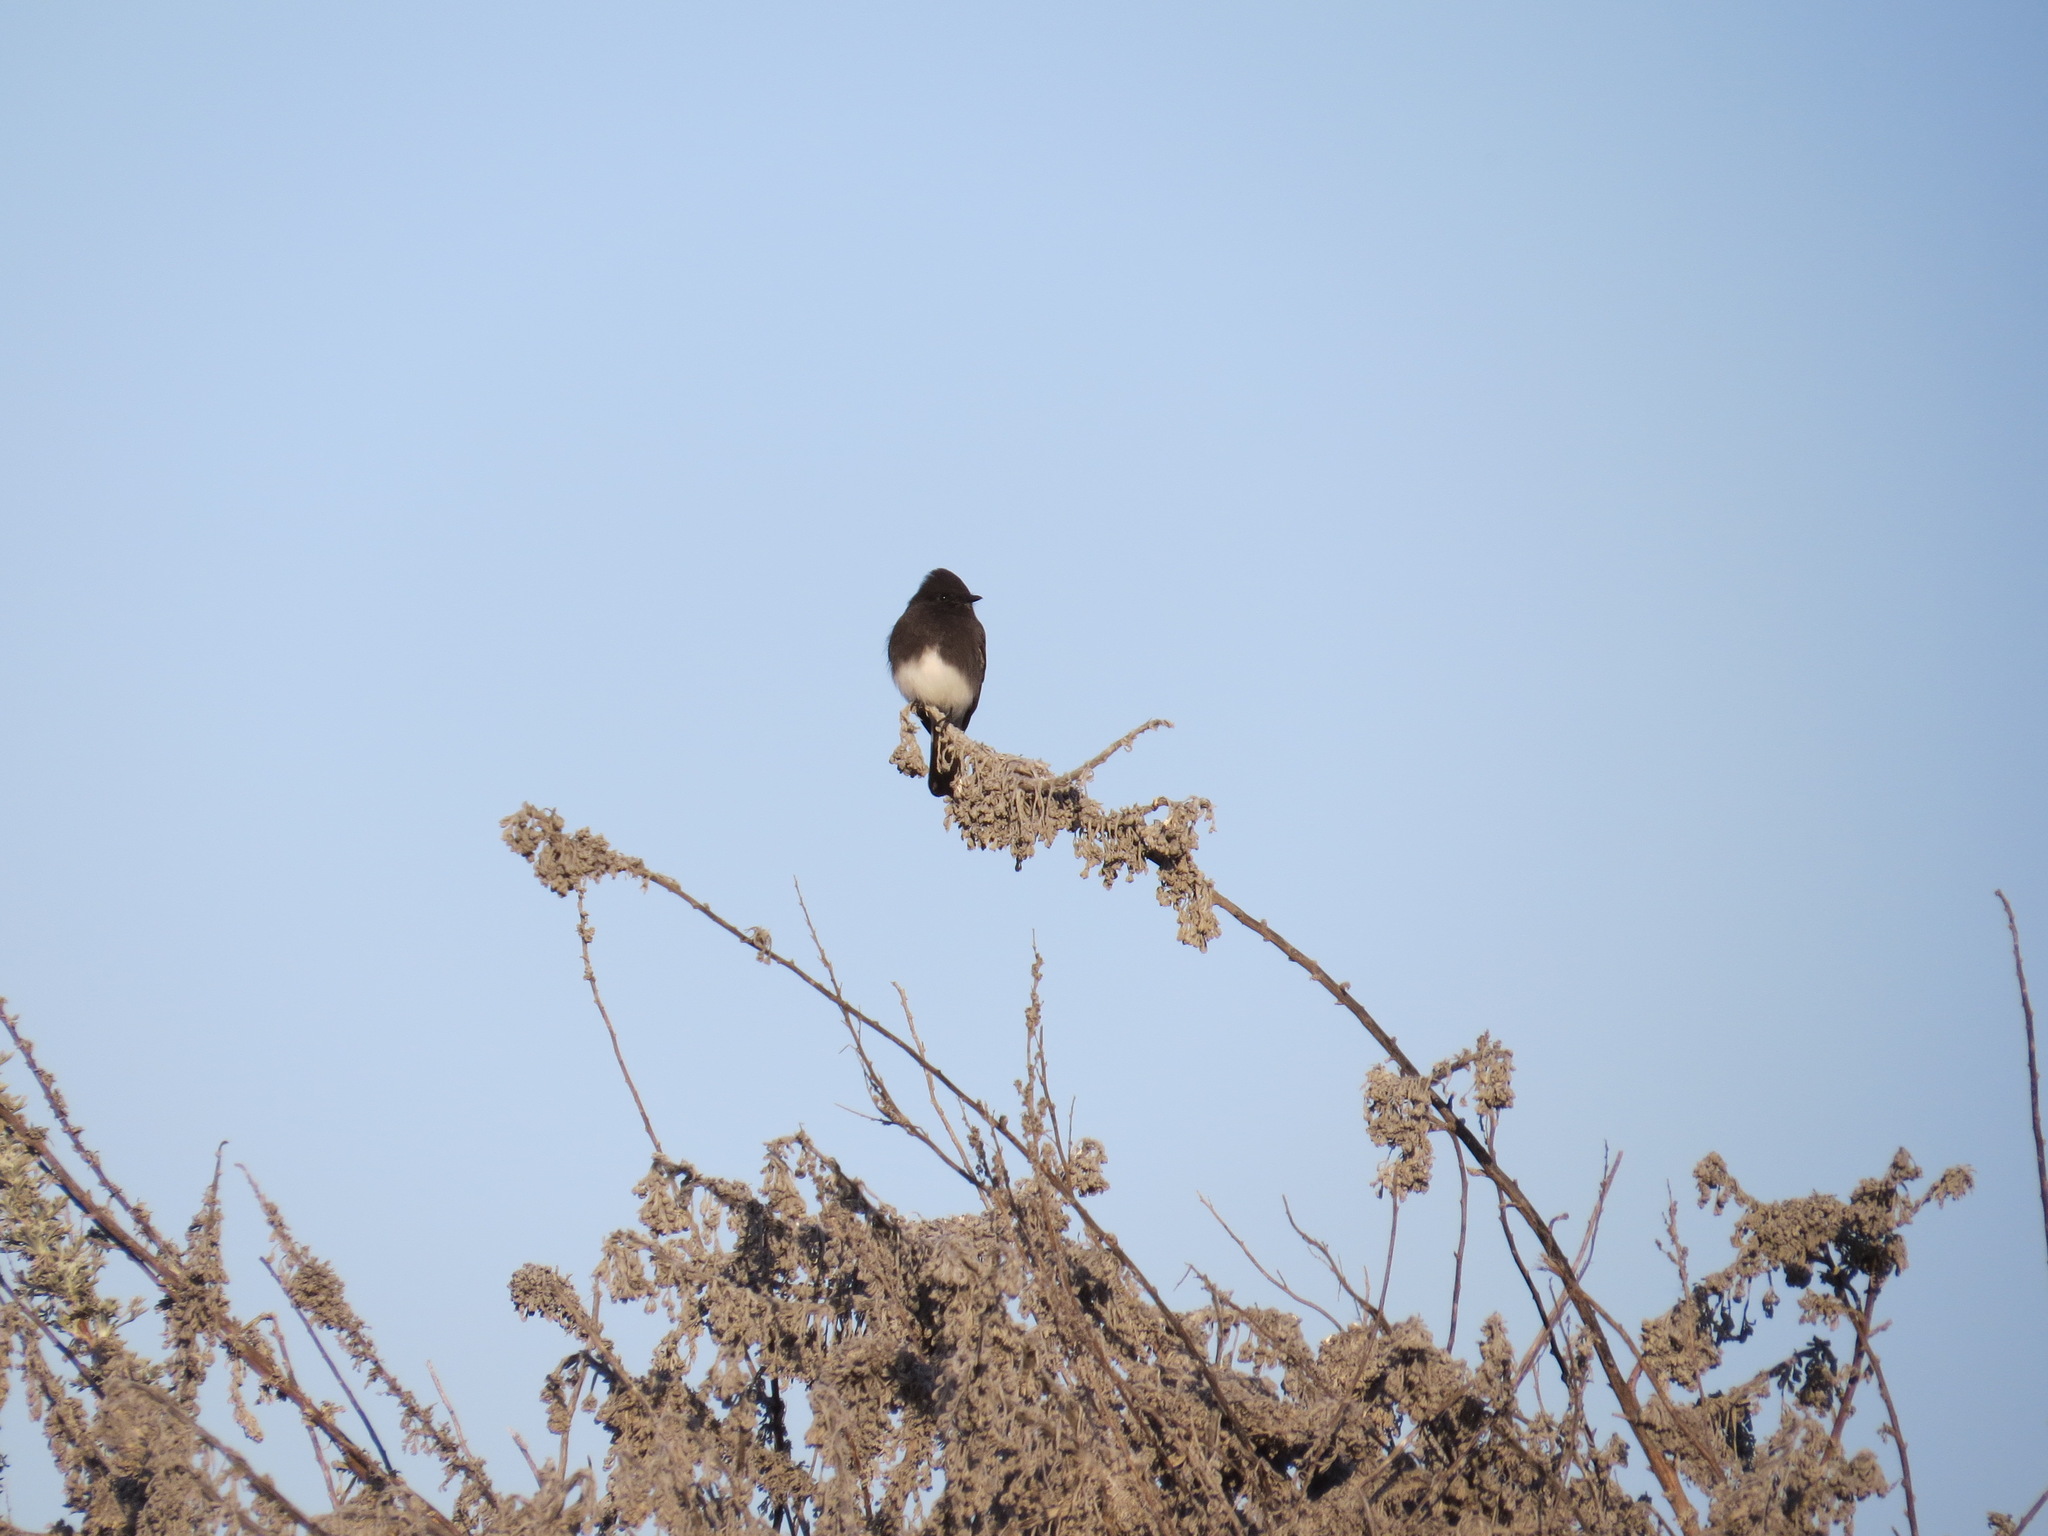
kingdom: Animalia
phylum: Chordata
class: Aves
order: Passeriformes
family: Tyrannidae
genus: Sayornis
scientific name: Sayornis nigricans
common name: Black phoebe
